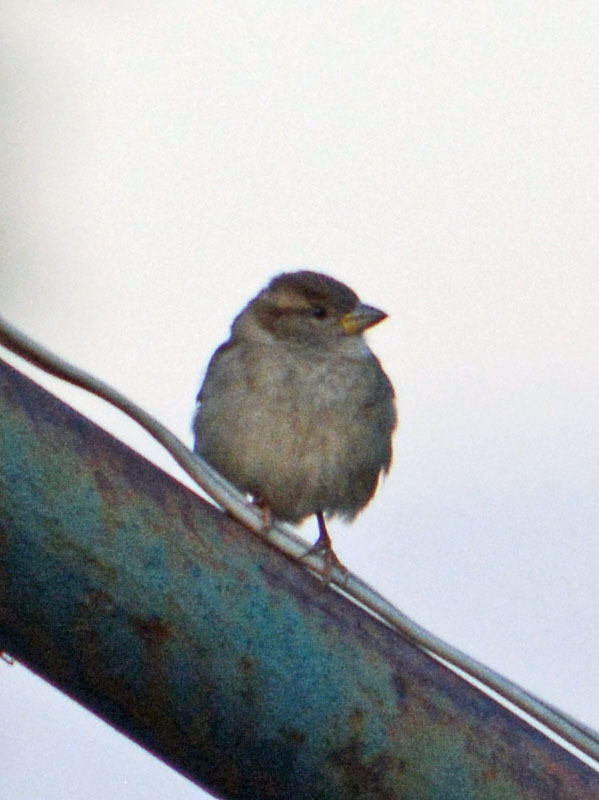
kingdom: Animalia
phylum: Chordata
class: Aves
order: Passeriformes
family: Passeridae
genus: Passer
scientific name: Passer domesticus
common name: House sparrow
